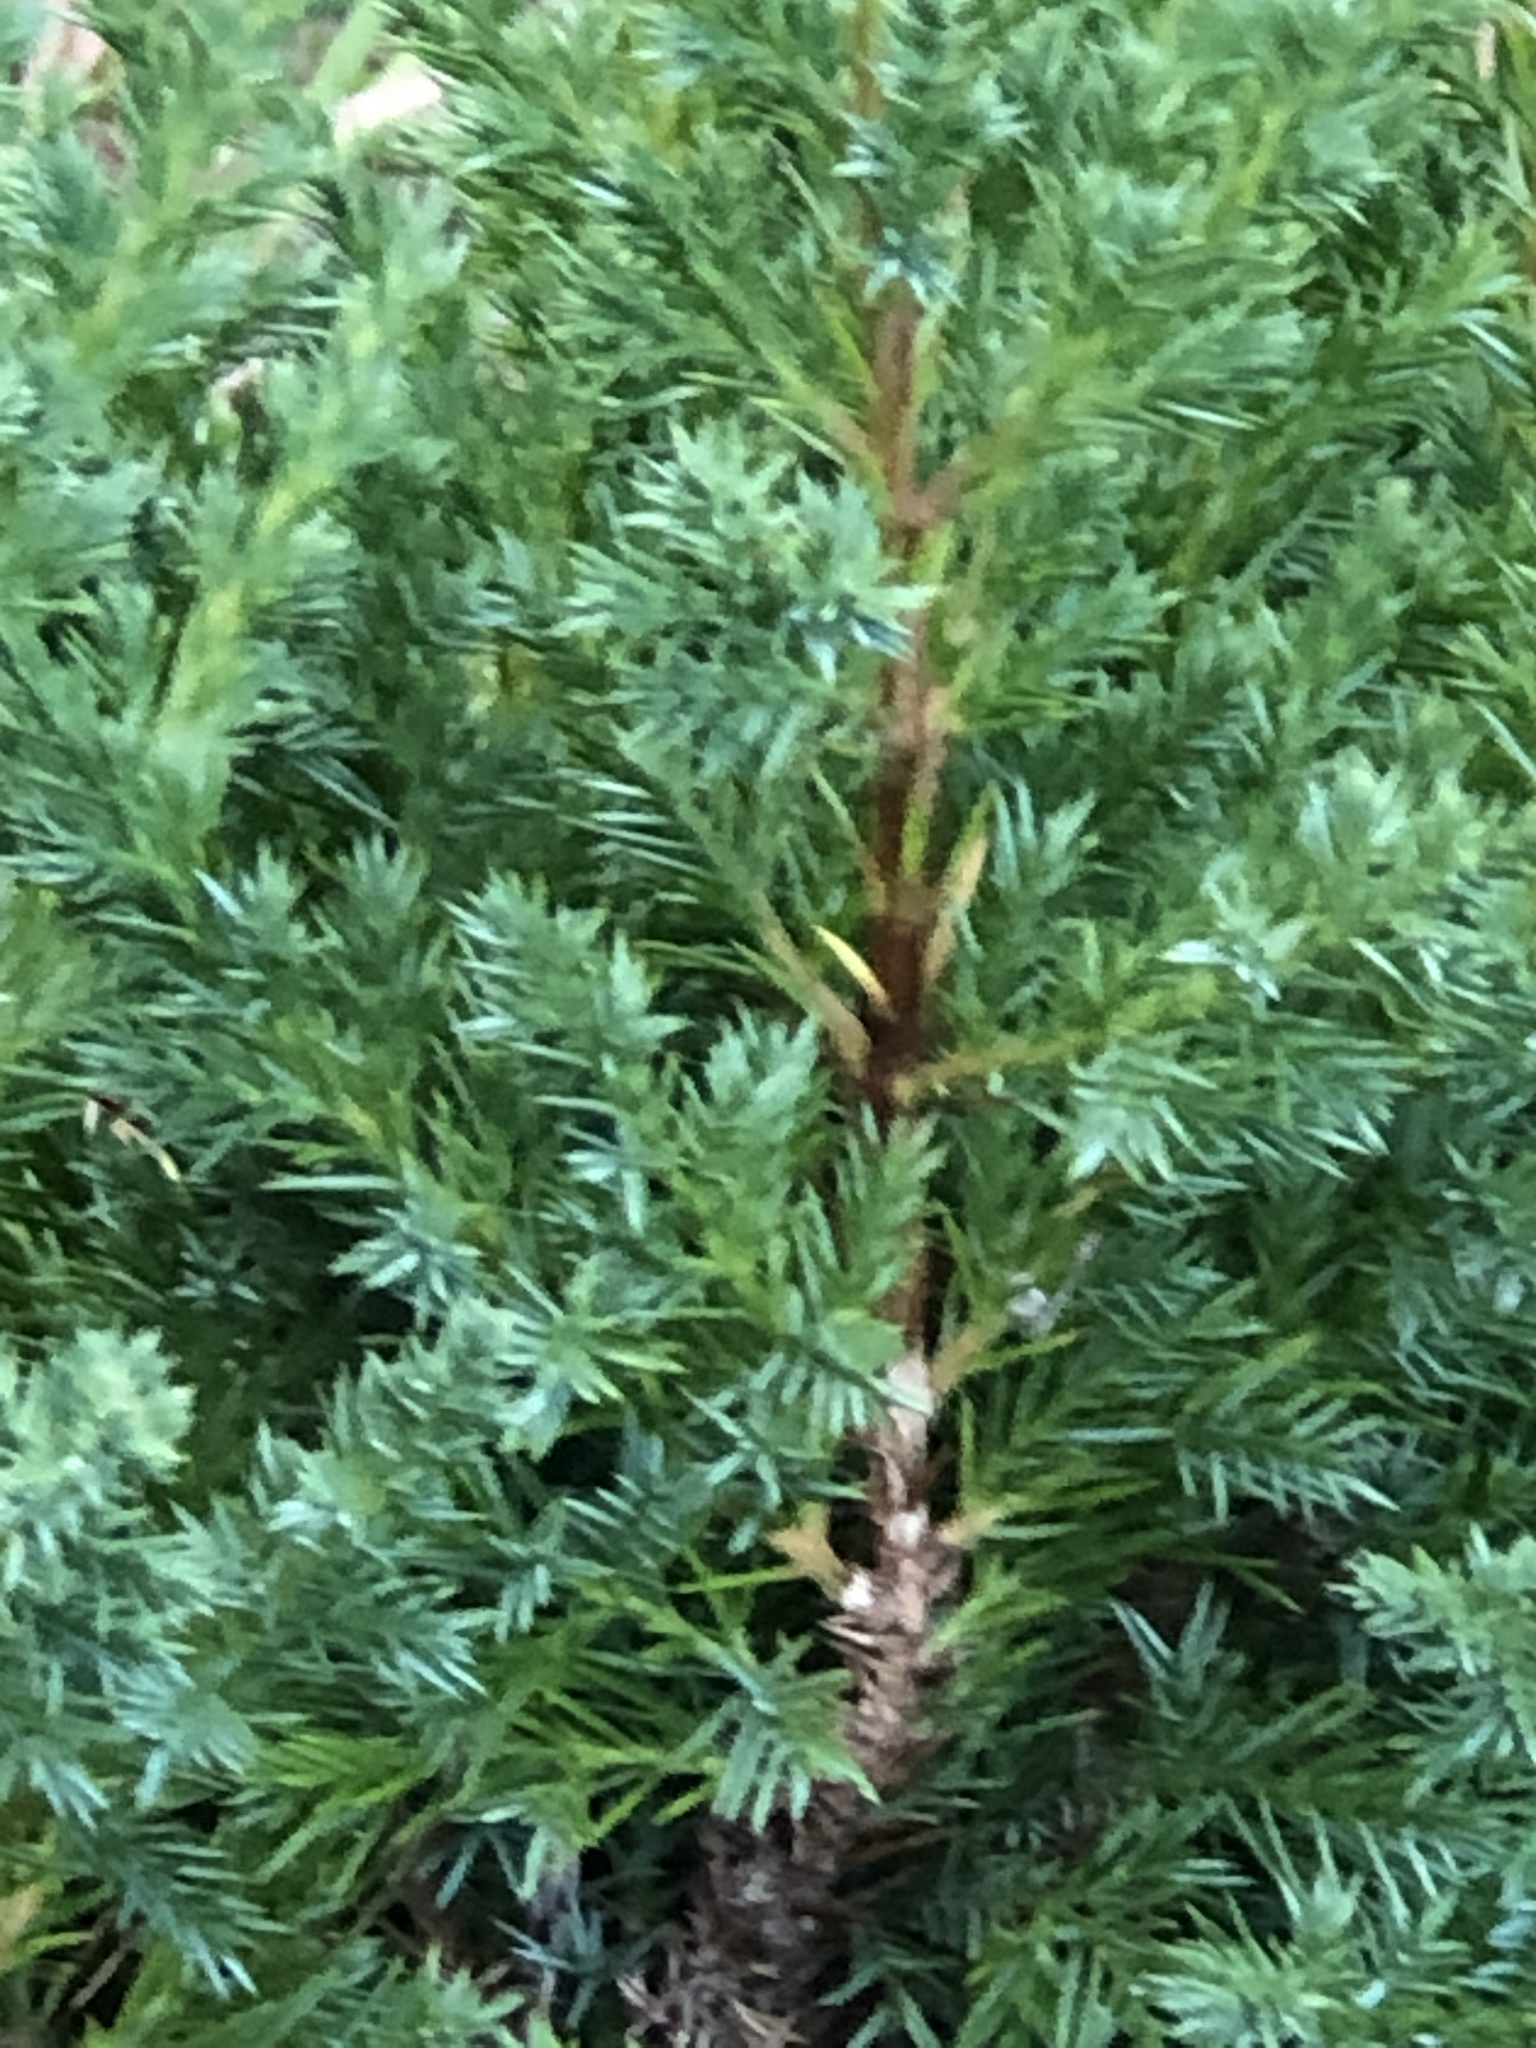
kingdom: Plantae
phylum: Tracheophyta
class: Pinopsida
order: Pinales
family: Cupressaceae
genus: Juniperus
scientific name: Juniperus virginiana
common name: Red juniper
